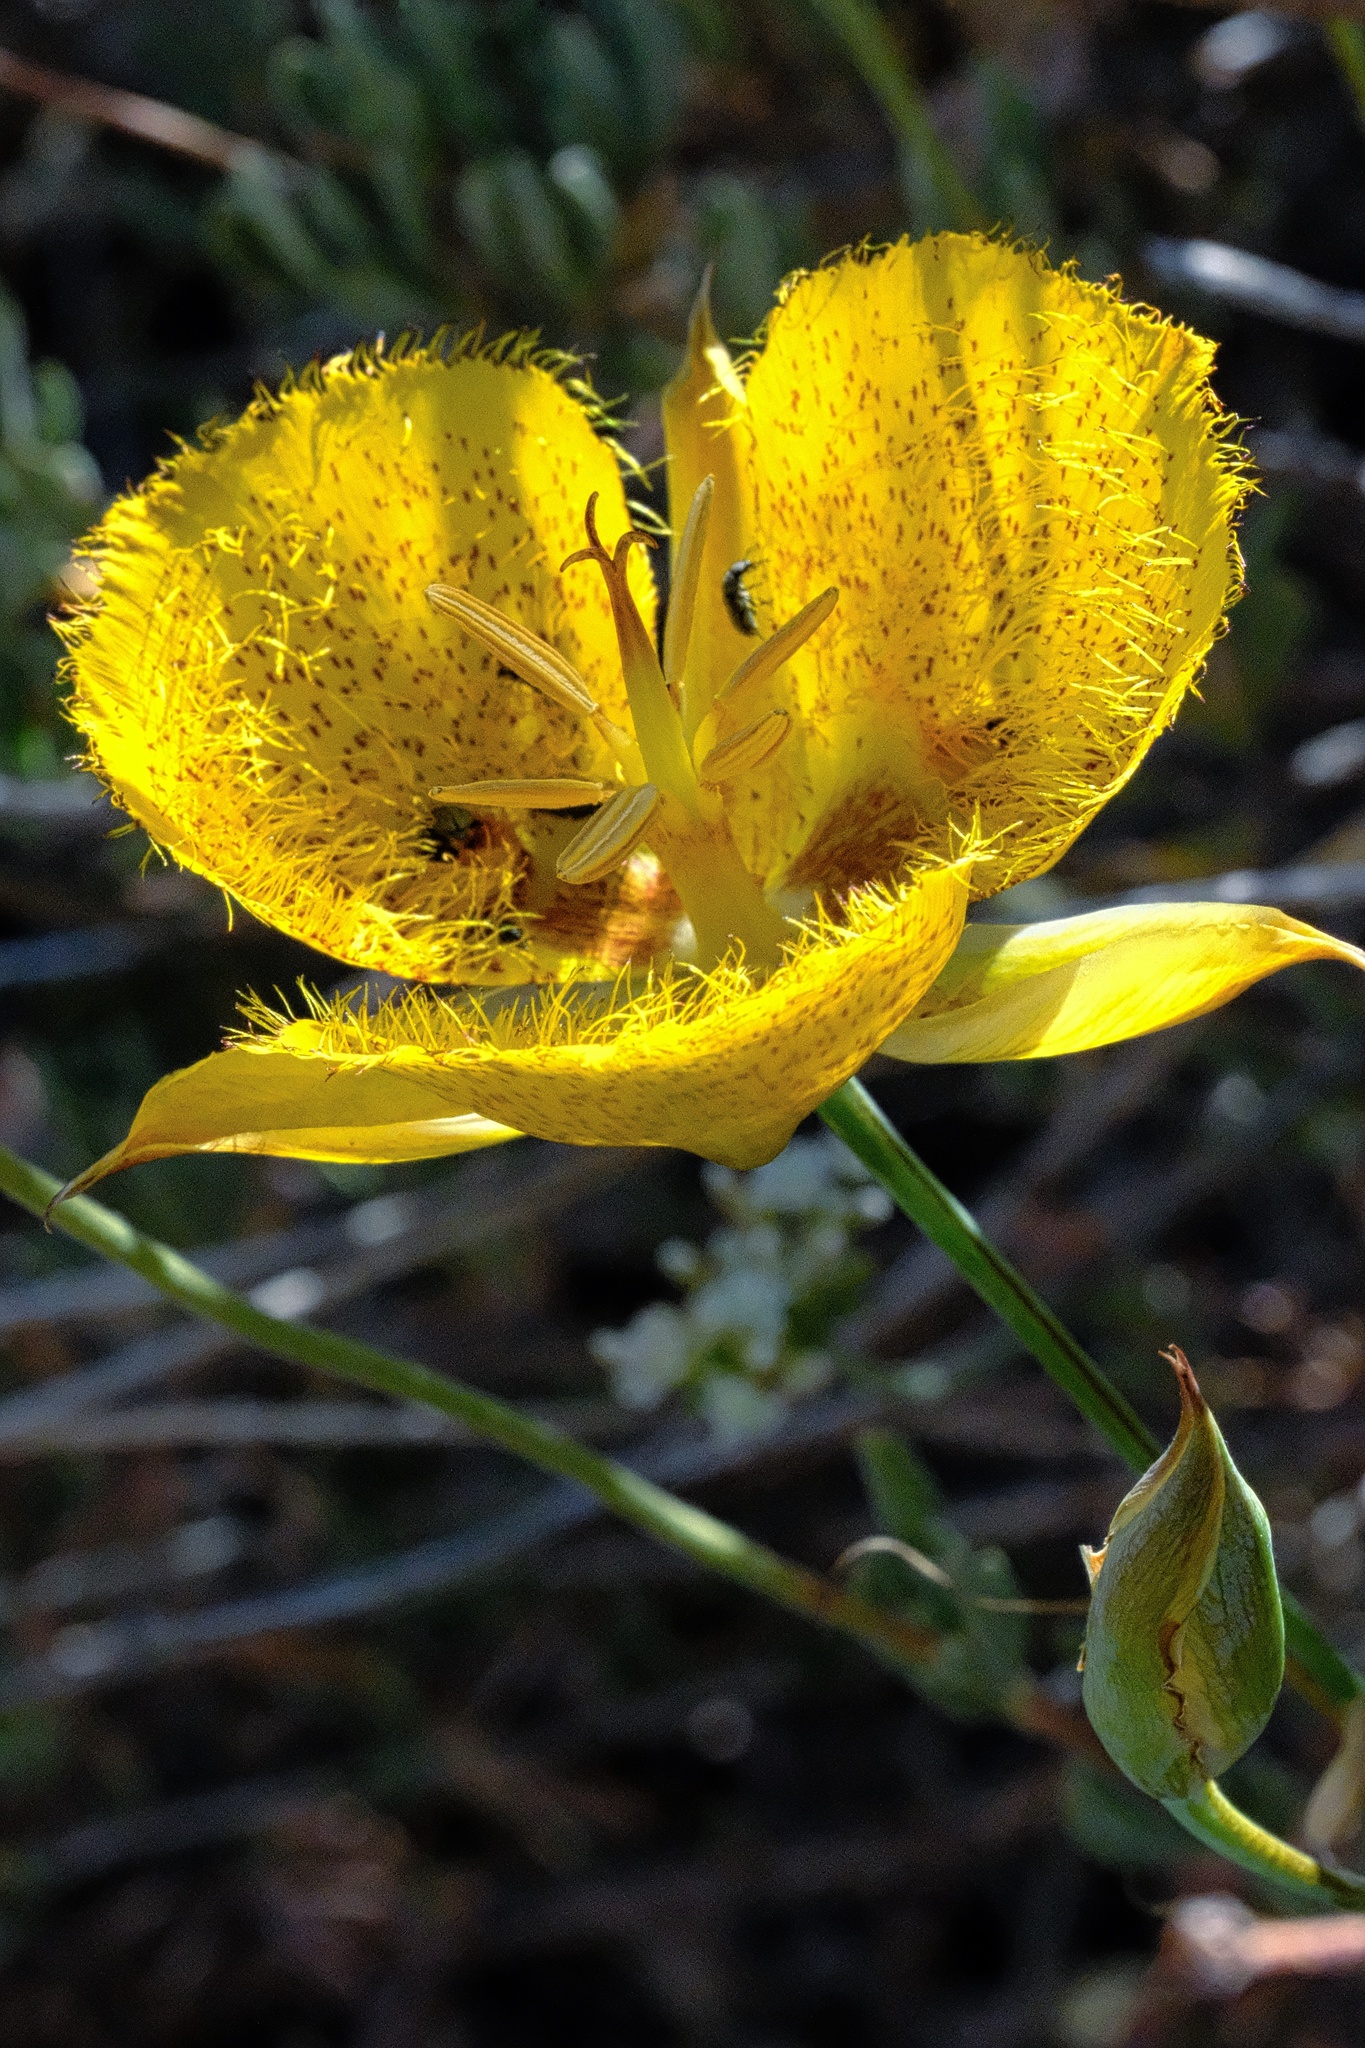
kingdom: Plantae
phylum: Tracheophyta
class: Liliopsida
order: Liliales
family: Liliaceae
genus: Calochortus
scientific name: Calochortus weedii
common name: Weed's mariposa-lily
